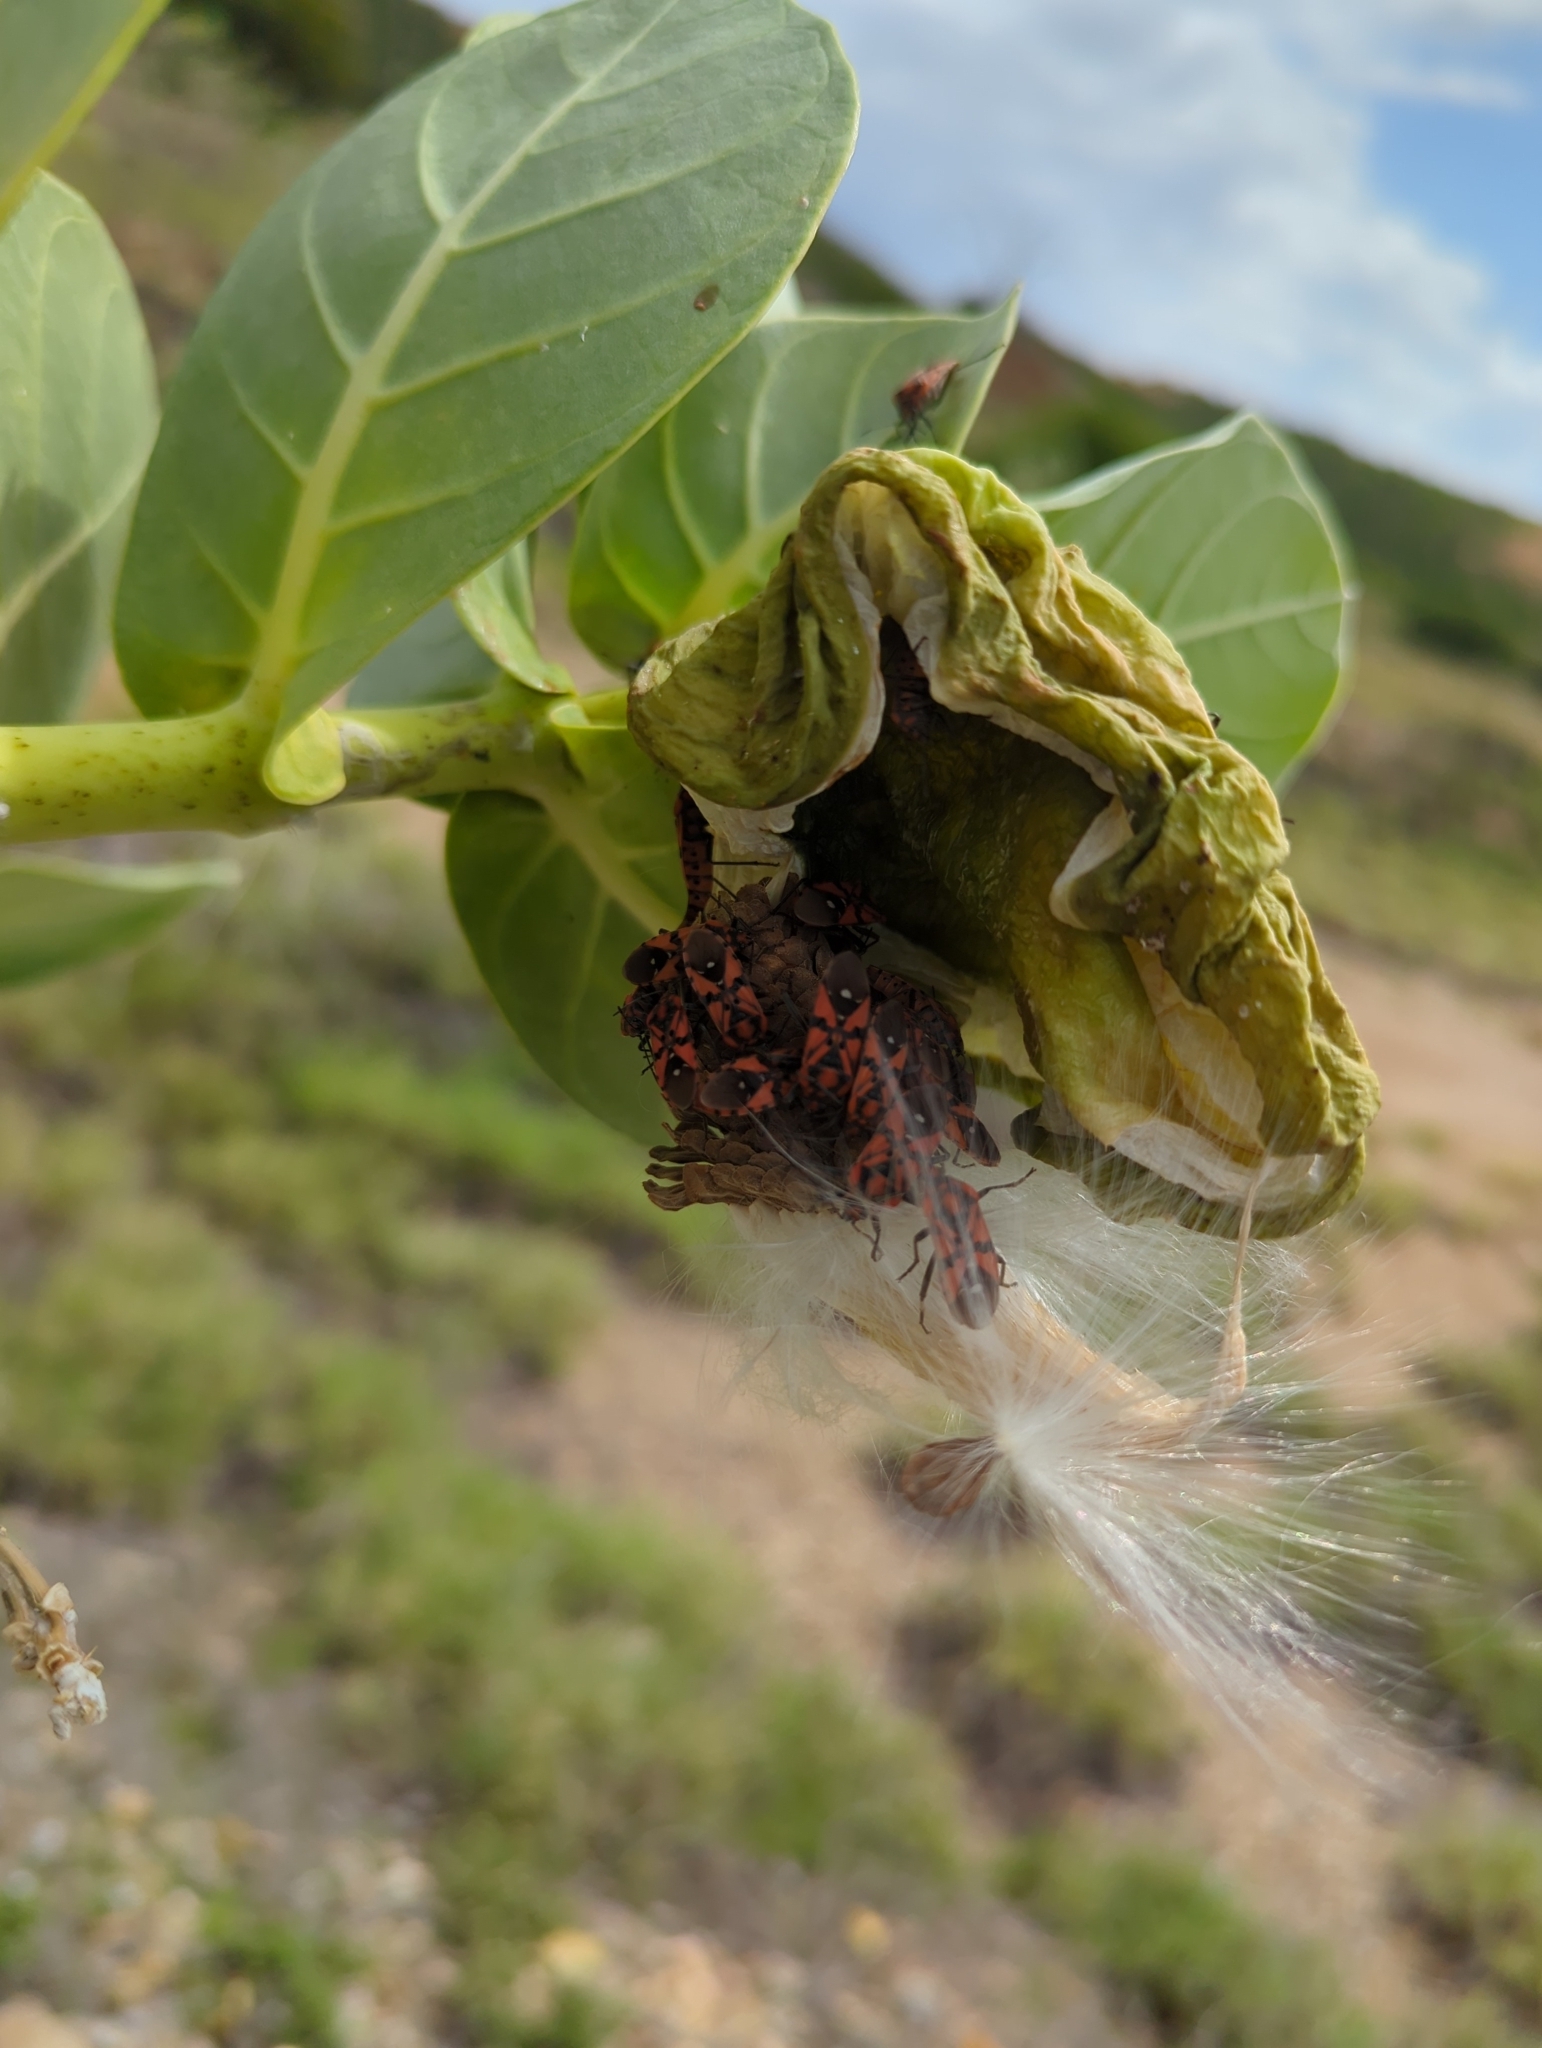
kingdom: Animalia
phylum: Arthropoda
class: Insecta
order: Hemiptera
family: Lygaeidae
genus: Spilostethus
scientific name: Spilostethus pandurus
